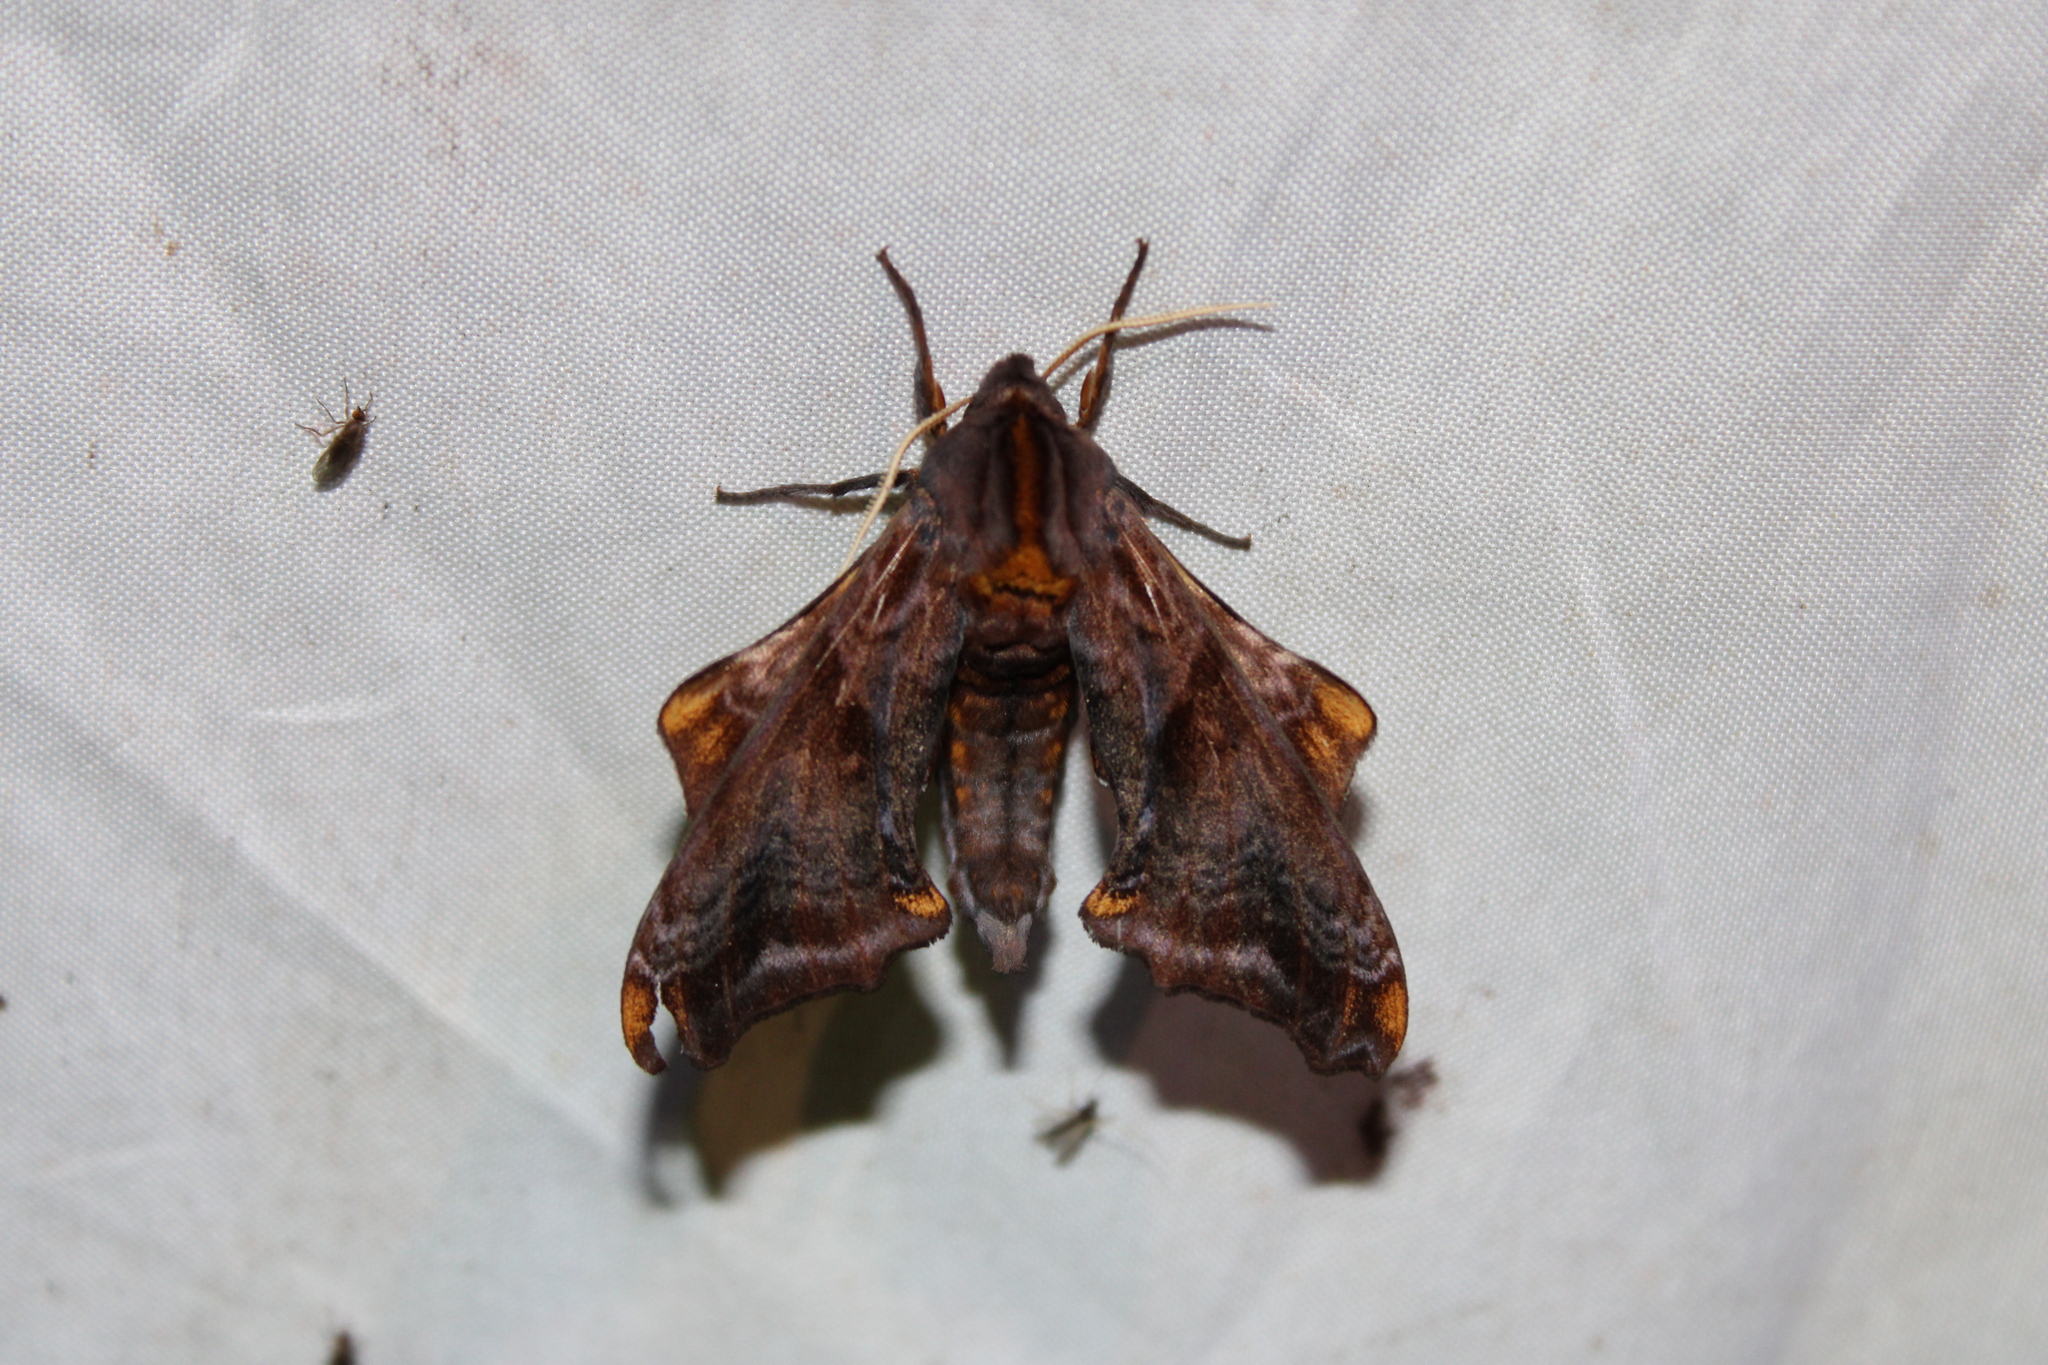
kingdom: Animalia
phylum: Arthropoda
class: Insecta
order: Lepidoptera
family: Sphingidae
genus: Paonias
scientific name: Paonias myops
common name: Small-eyed sphinx
